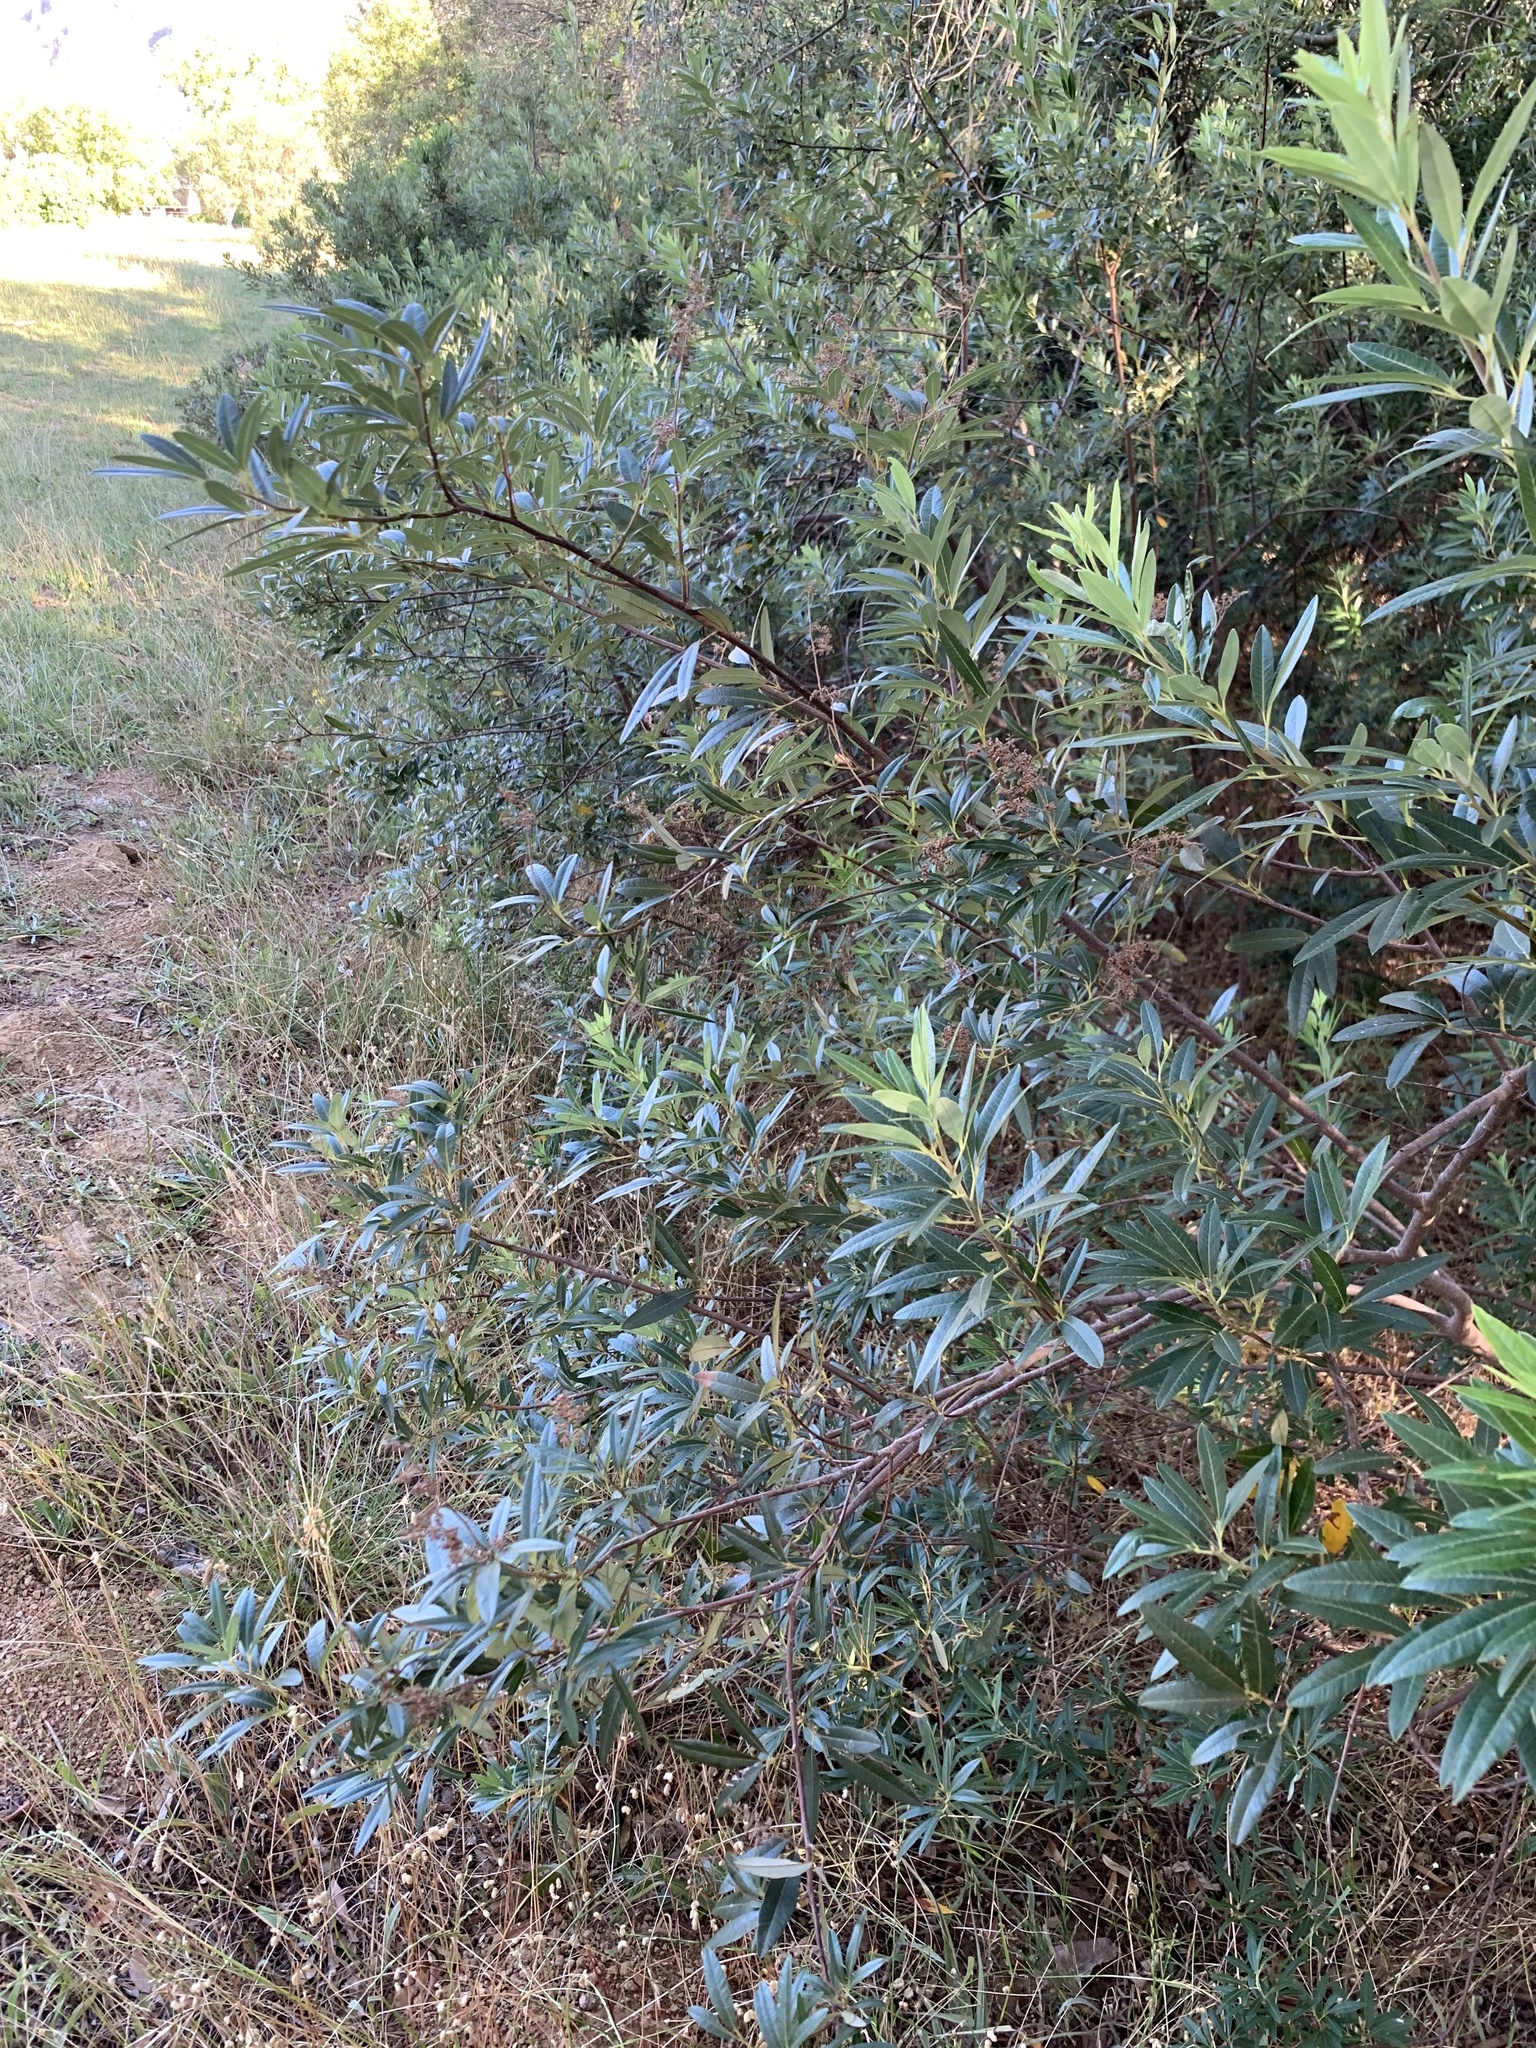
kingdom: Plantae
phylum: Tracheophyta
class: Magnoliopsida
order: Sapindales
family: Anacardiaceae
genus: Searsia
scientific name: Searsia angustifolia
